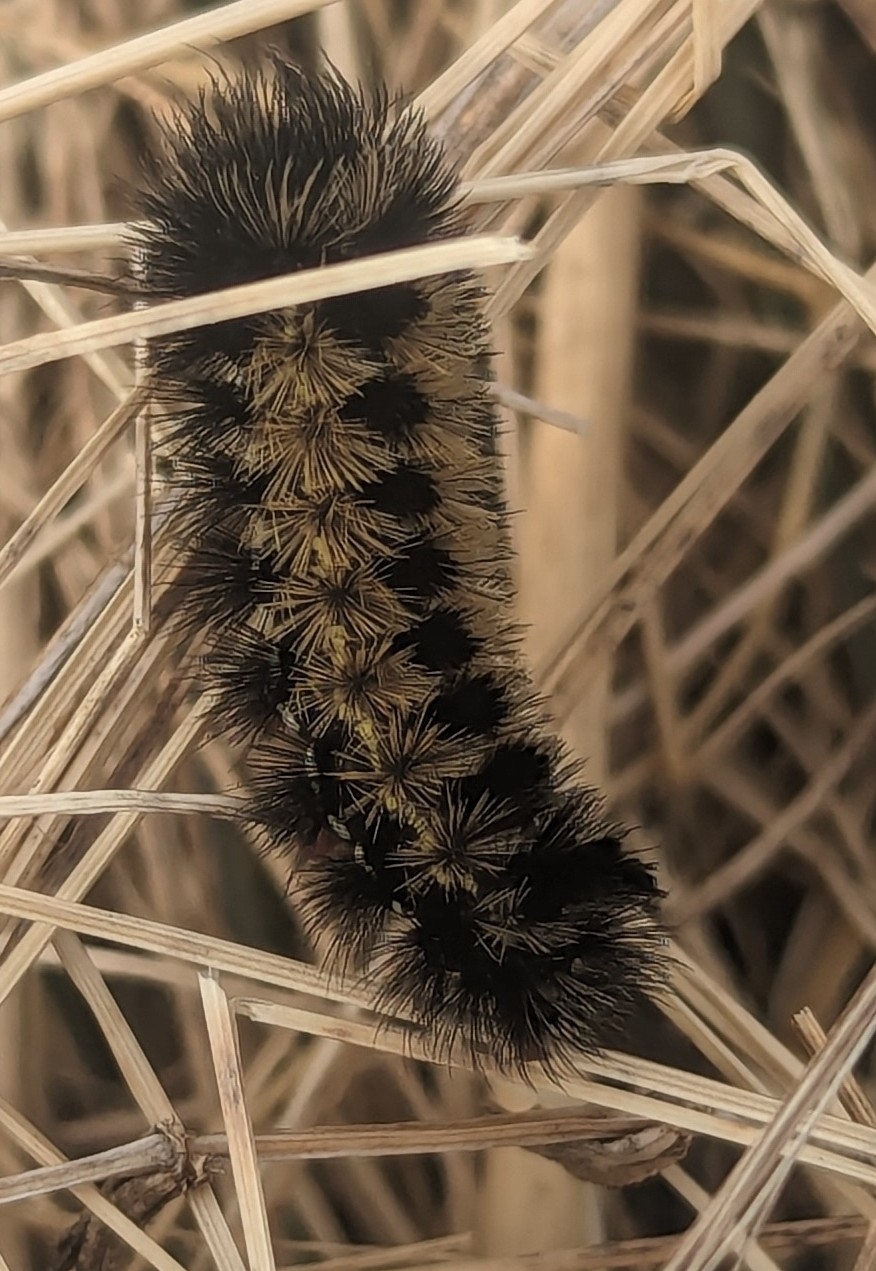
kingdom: Animalia
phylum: Arthropoda
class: Insecta
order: Lepidoptera
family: Erebidae
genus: Ctenucha
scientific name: Ctenucha virginica
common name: Virginia ctenucha moth
